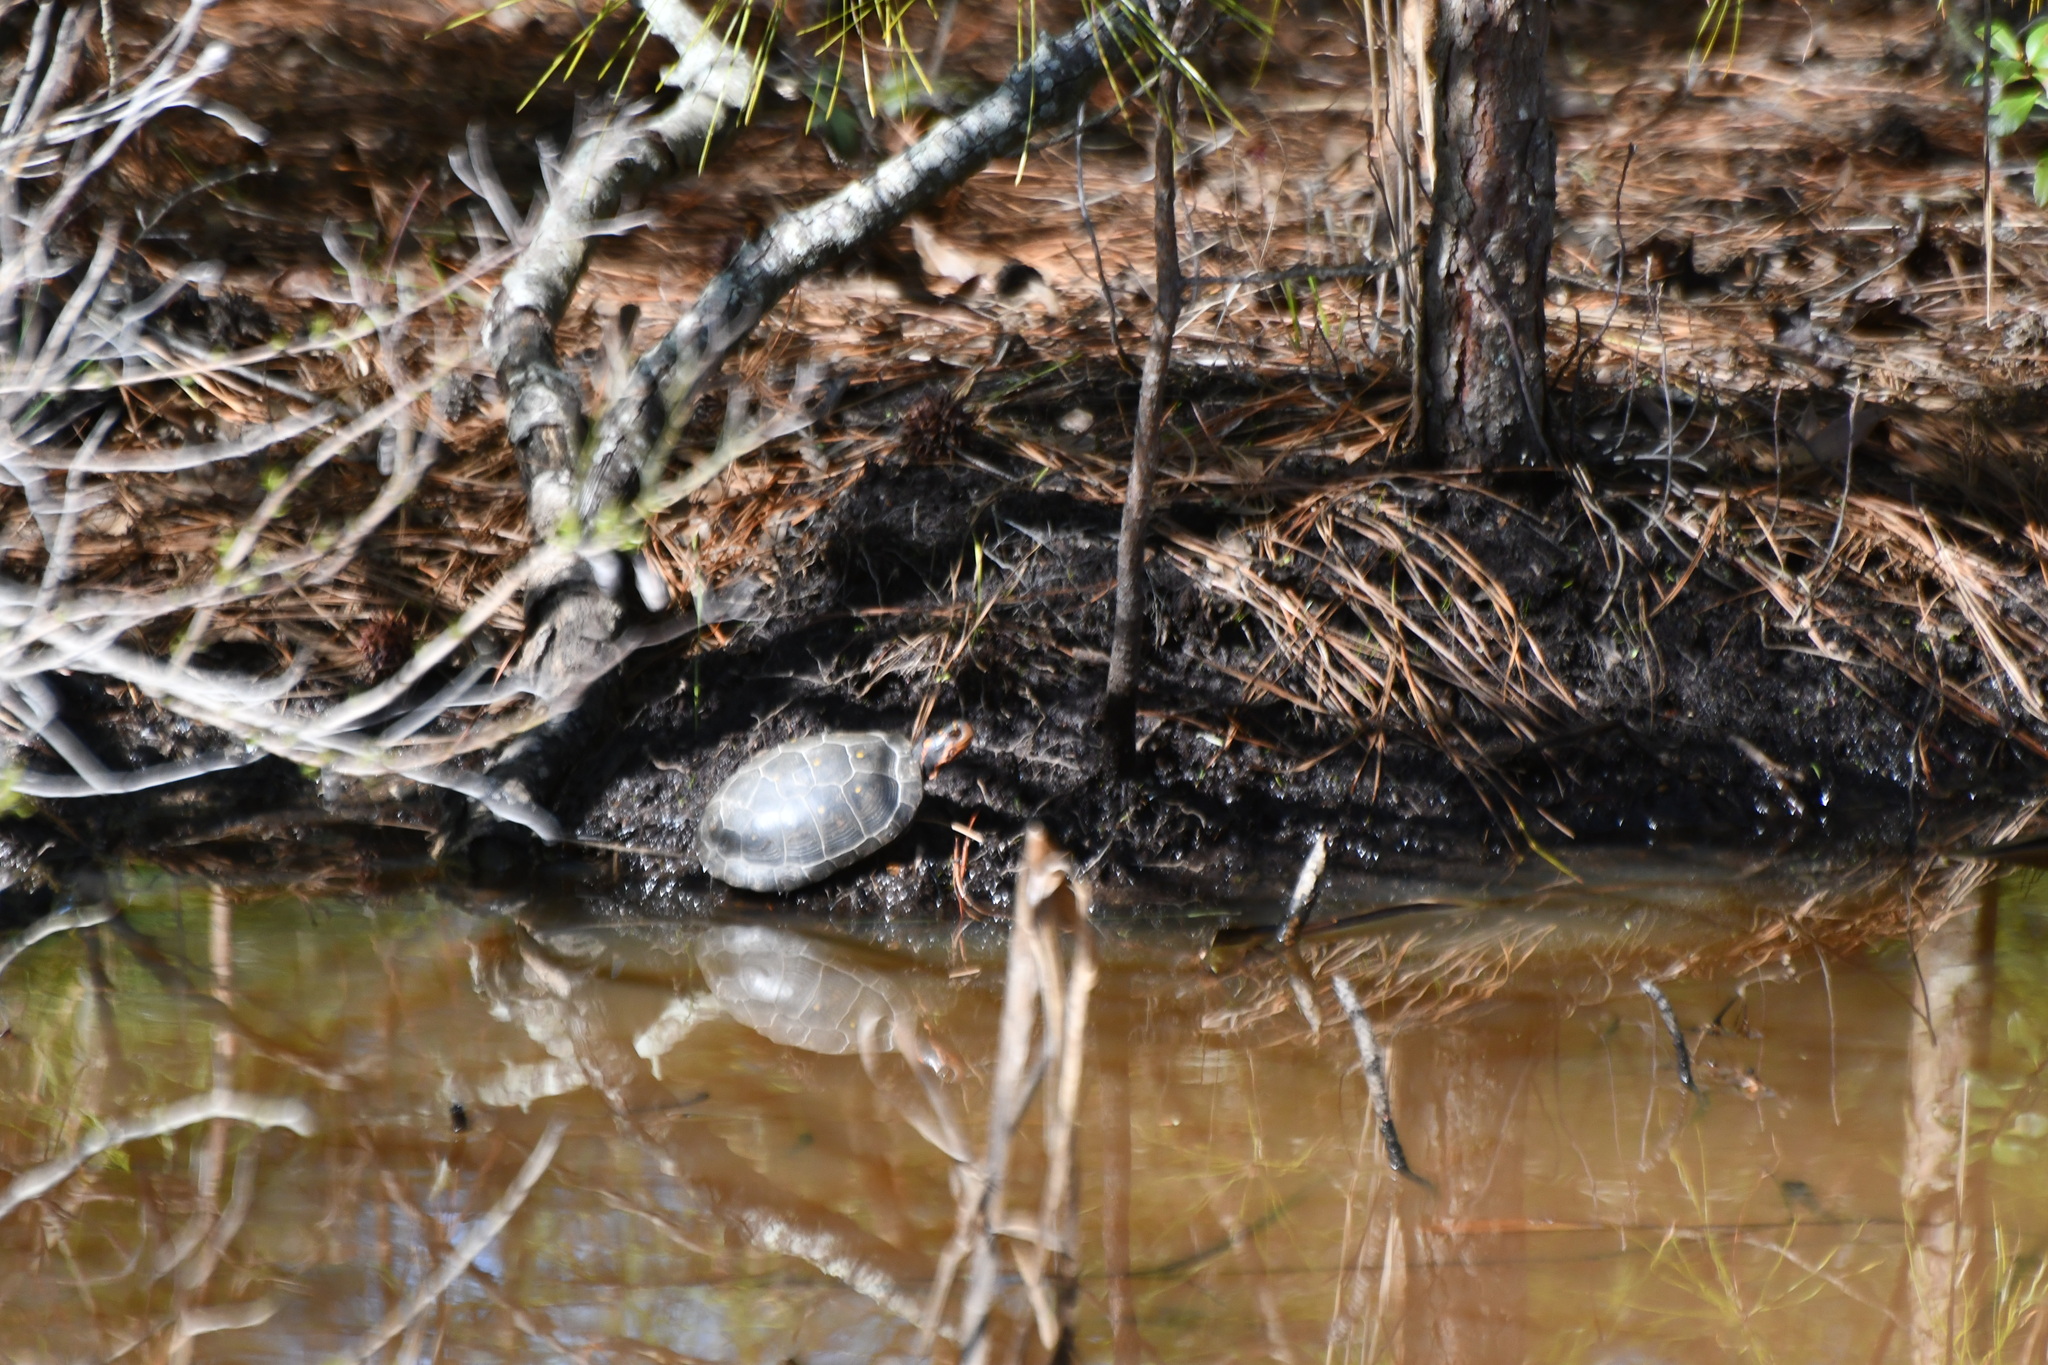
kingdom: Animalia
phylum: Chordata
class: Testudines
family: Emydidae
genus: Clemmys
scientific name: Clemmys guttata
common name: Spotted turtle
